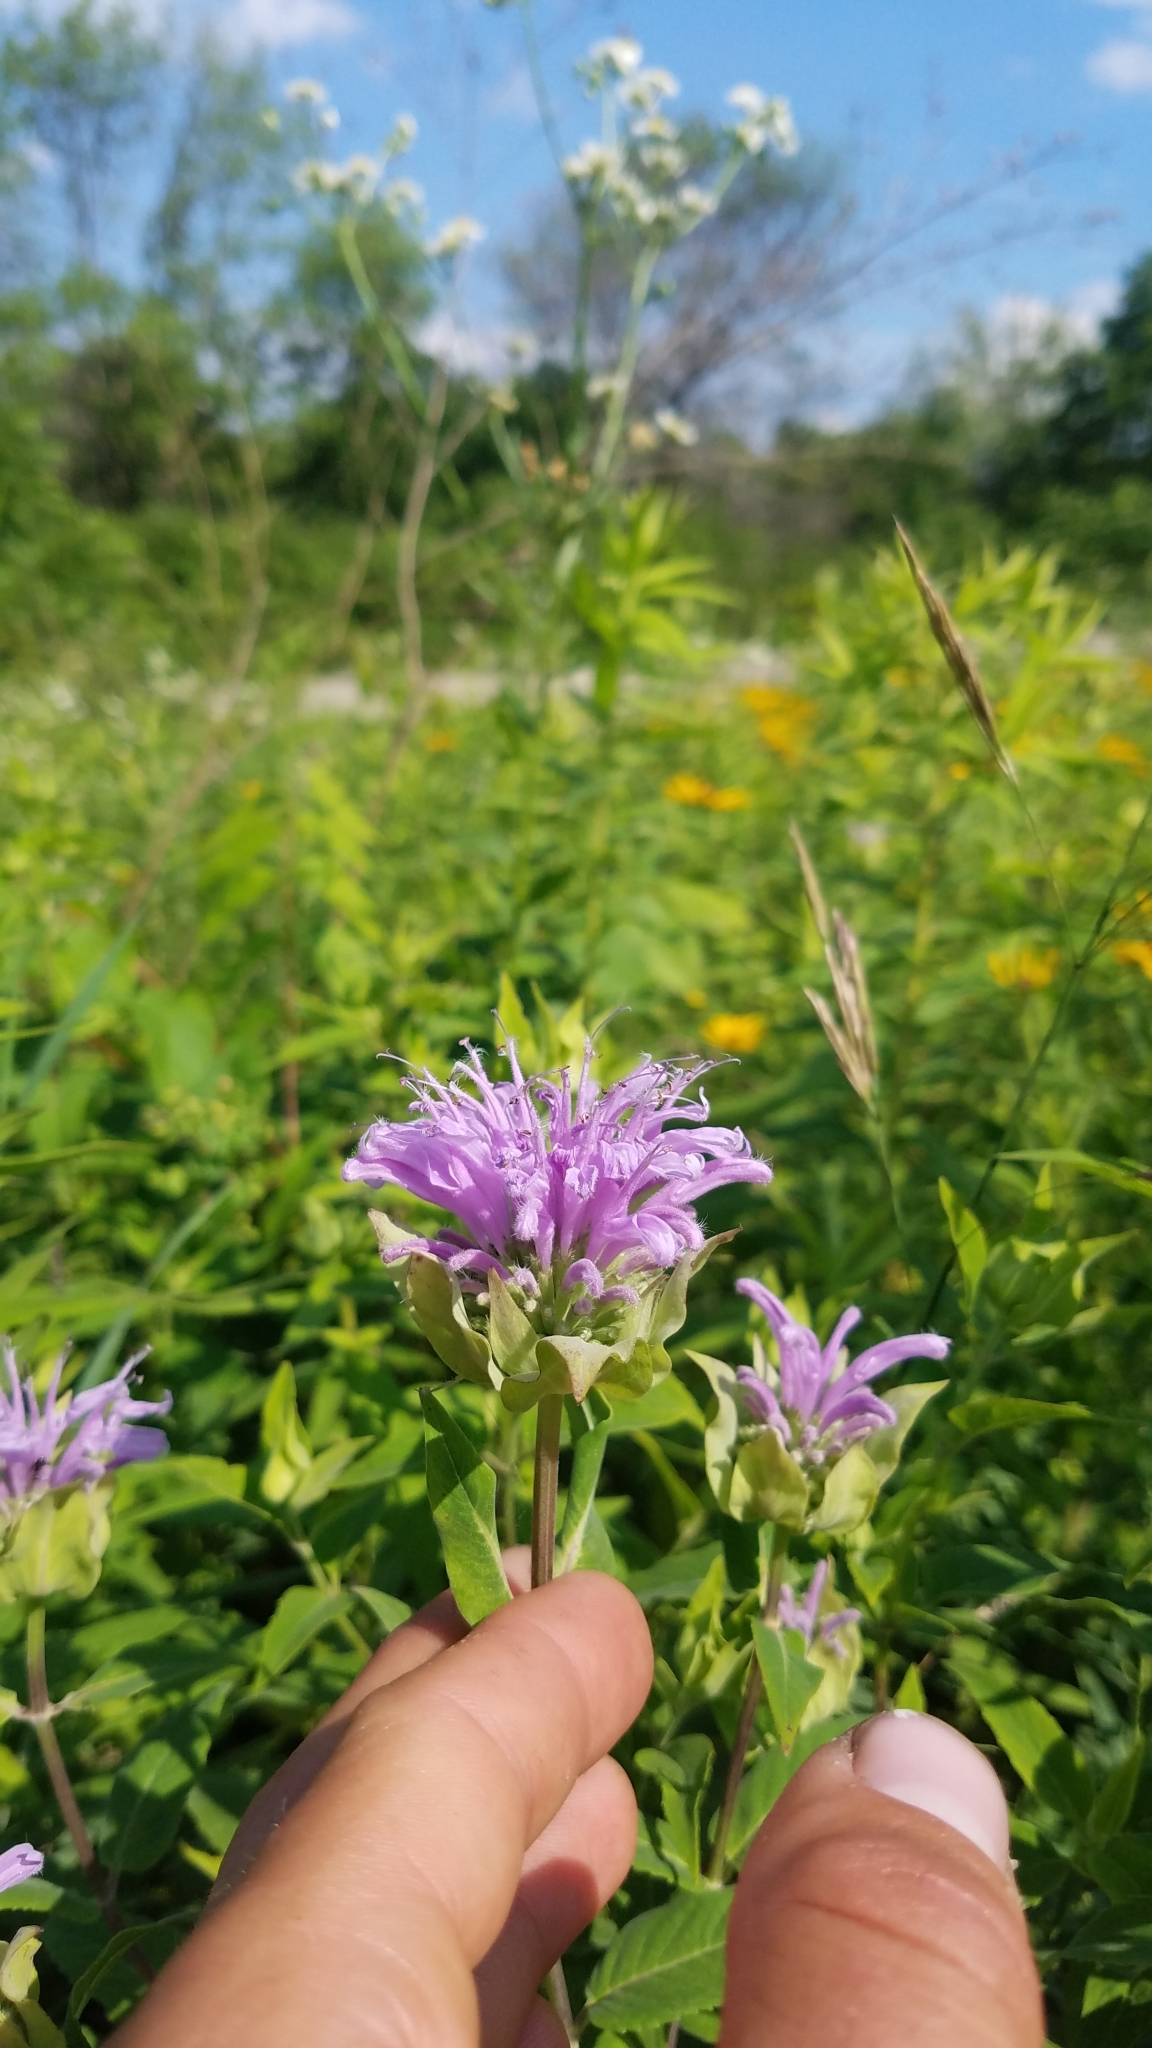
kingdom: Plantae
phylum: Tracheophyta
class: Magnoliopsida
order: Lamiales
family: Lamiaceae
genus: Monarda
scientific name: Monarda fistulosa
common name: Purple beebalm
